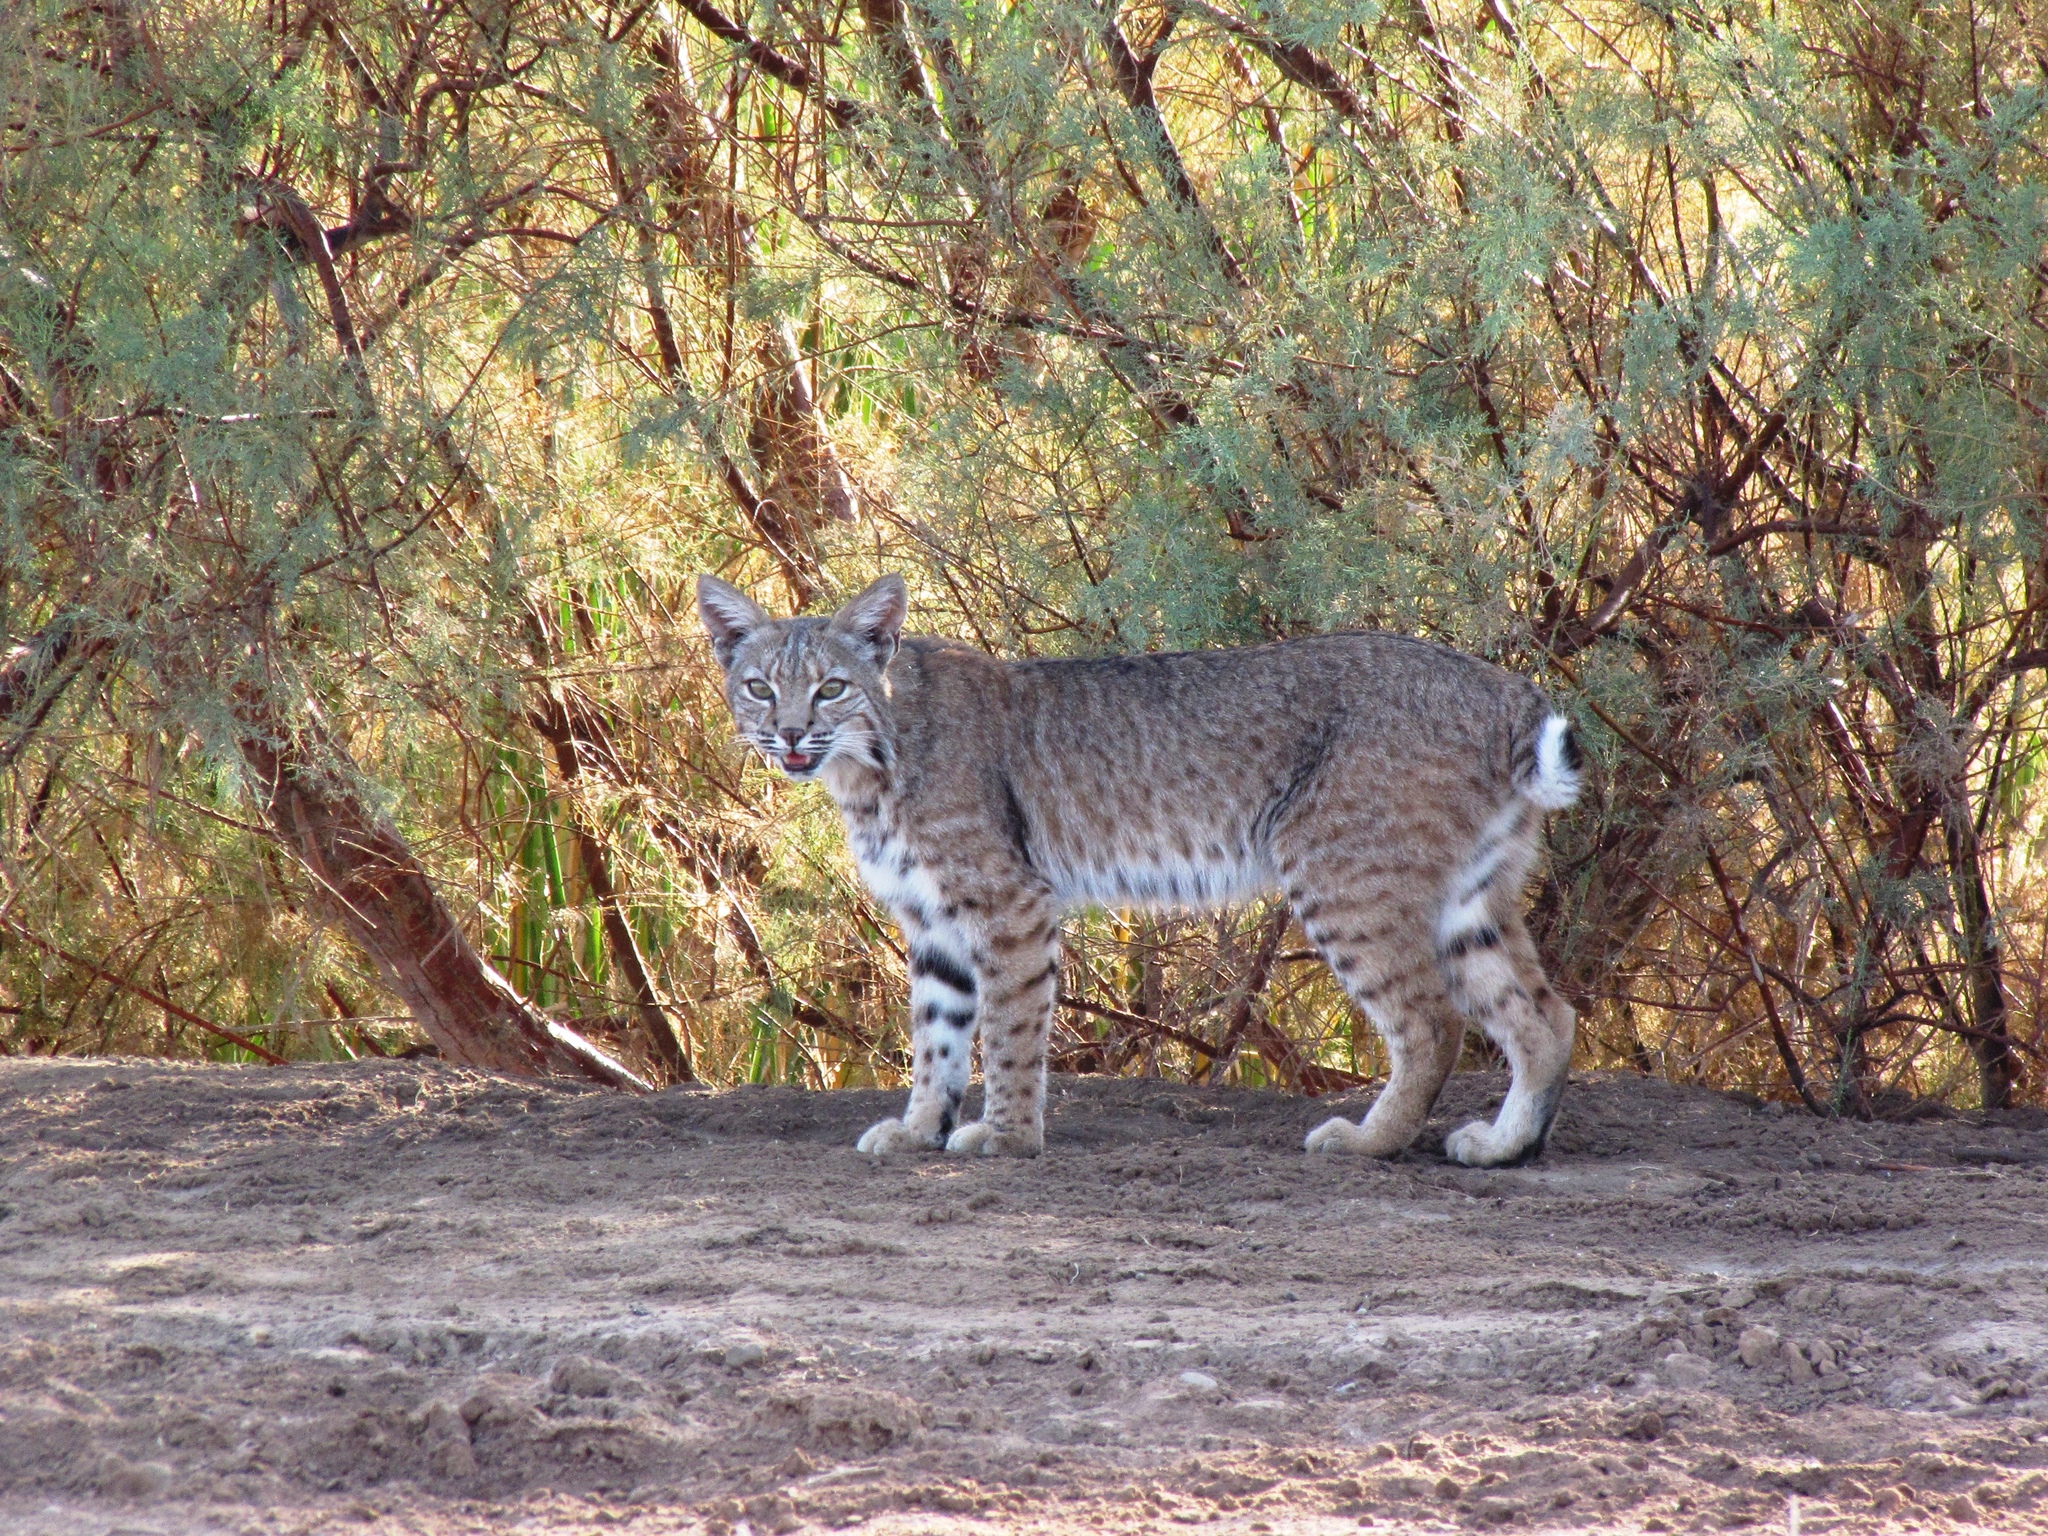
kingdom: Animalia
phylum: Chordata
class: Mammalia
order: Carnivora
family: Felidae
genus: Lynx
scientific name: Lynx rufus
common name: Bobcat
